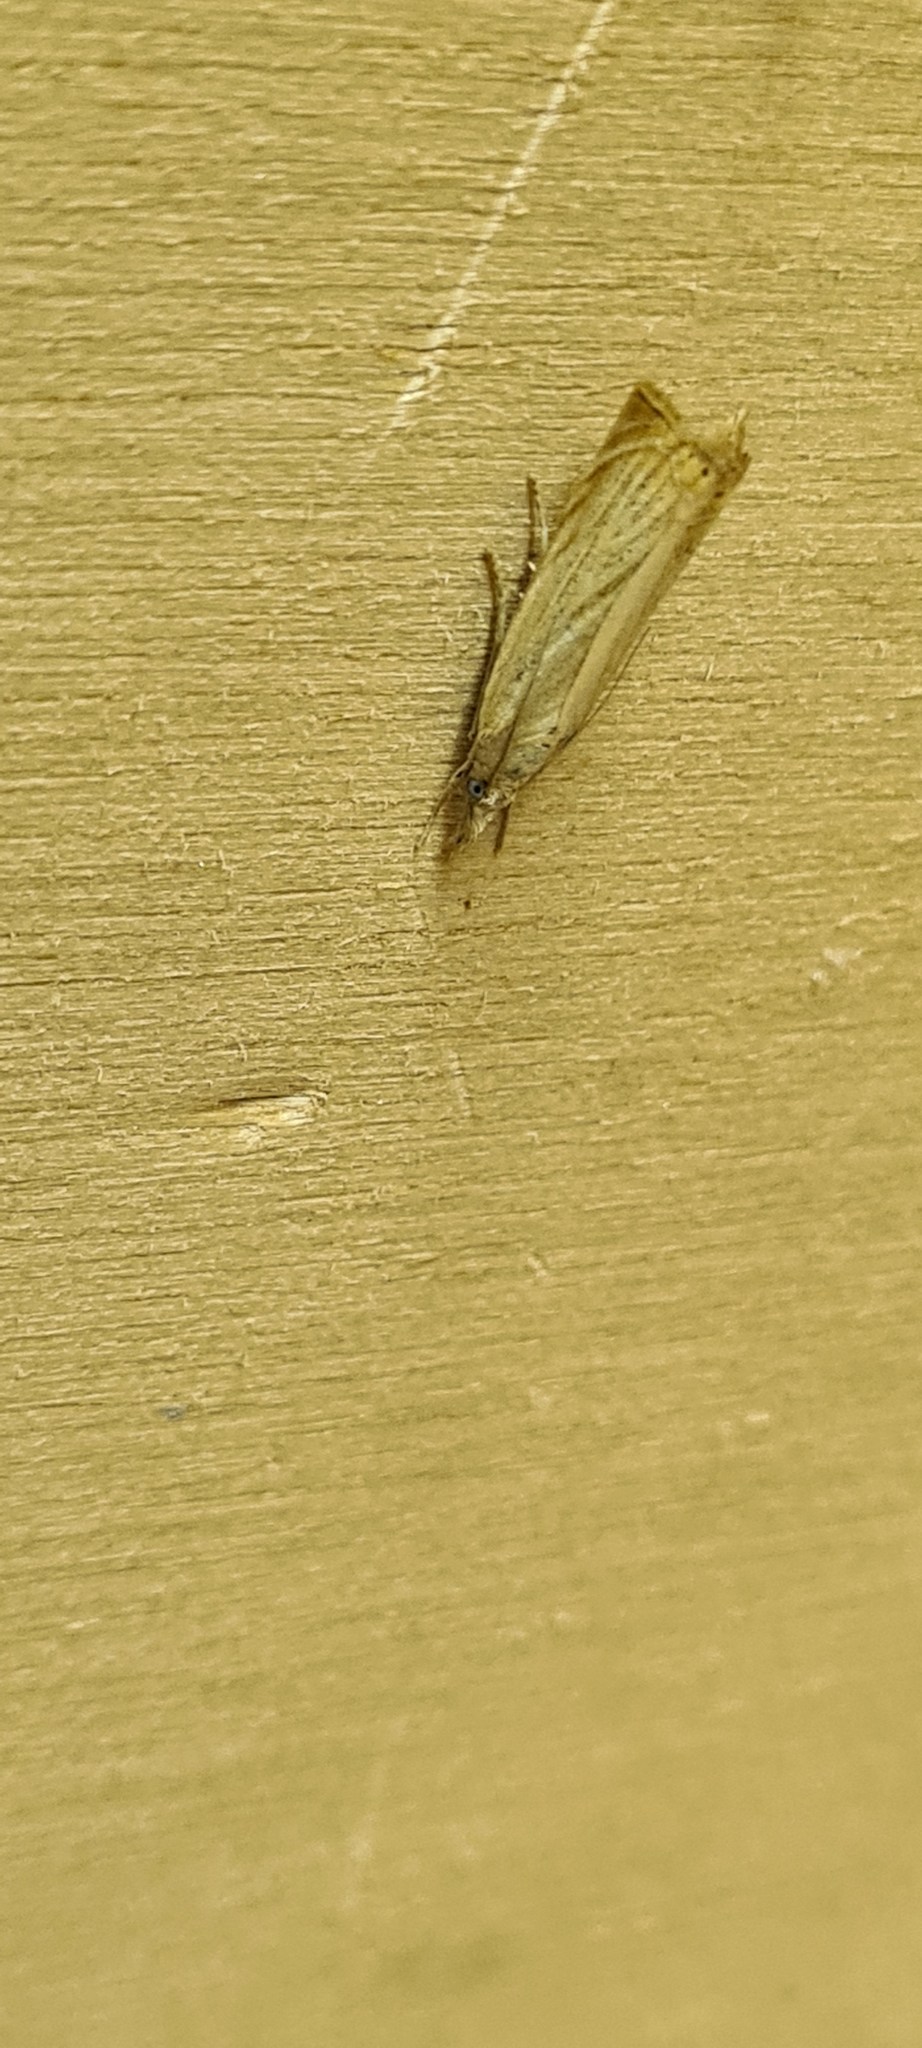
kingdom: Animalia
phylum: Arthropoda
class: Insecta
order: Lepidoptera
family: Crambidae
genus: Chrysoteuchia
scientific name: Chrysoteuchia culmella
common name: Garden grass-veneer
